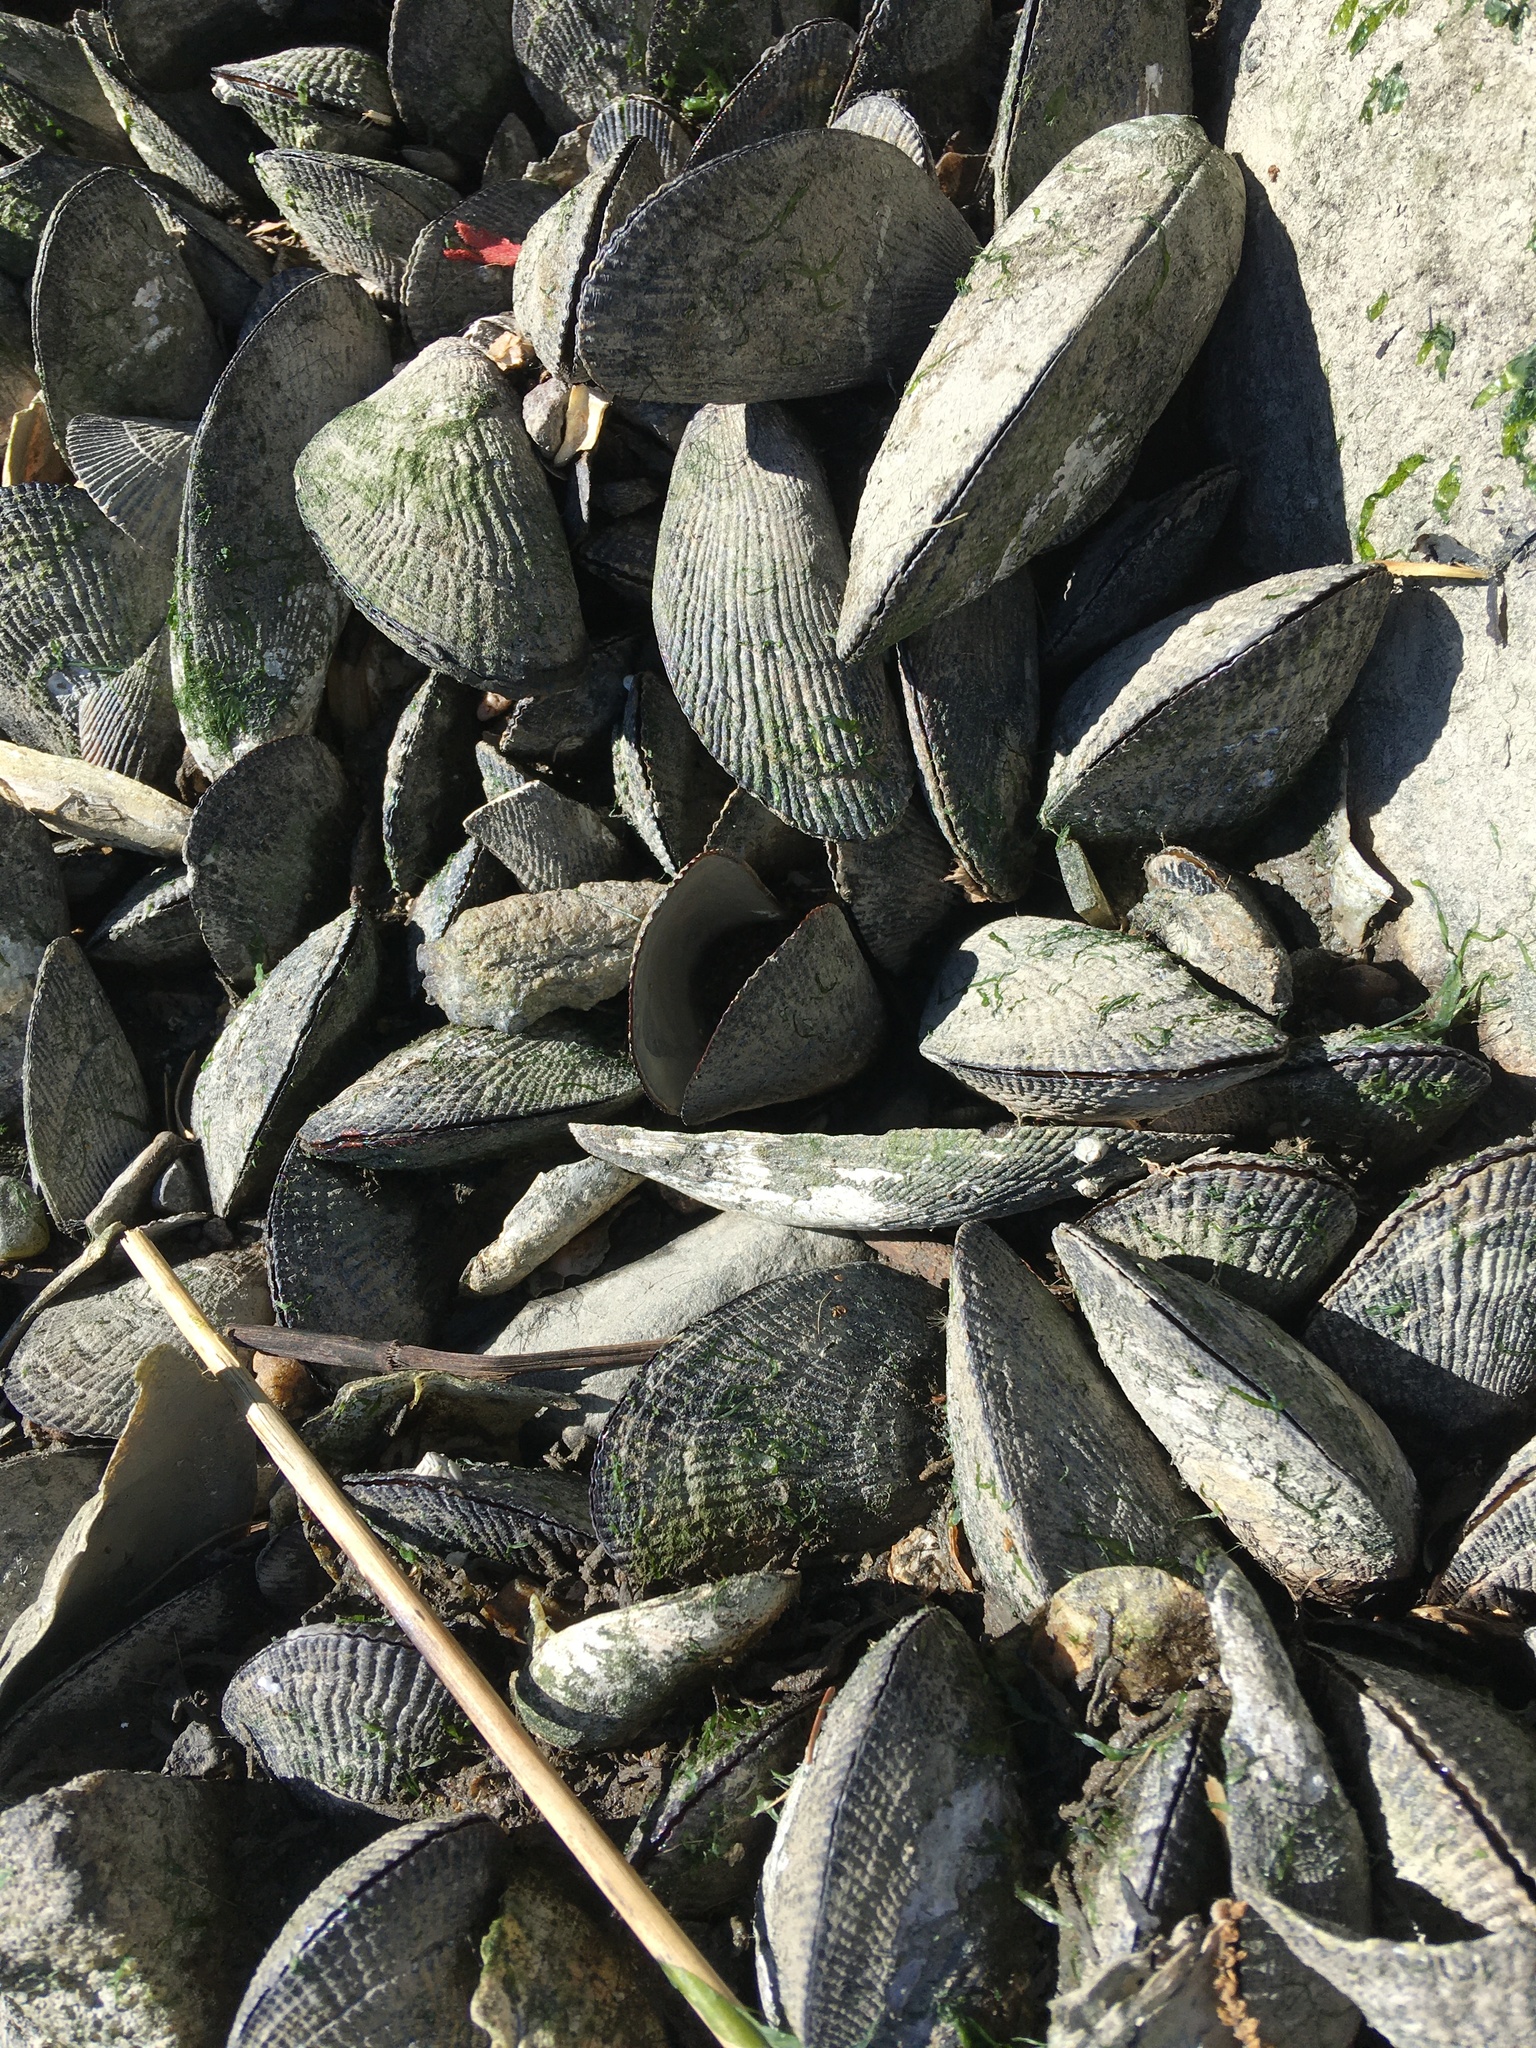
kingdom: Animalia
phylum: Mollusca
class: Bivalvia
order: Mytilida
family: Mytilidae
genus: Geukensia
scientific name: Geukensia demissa
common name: Ribbed mussel
